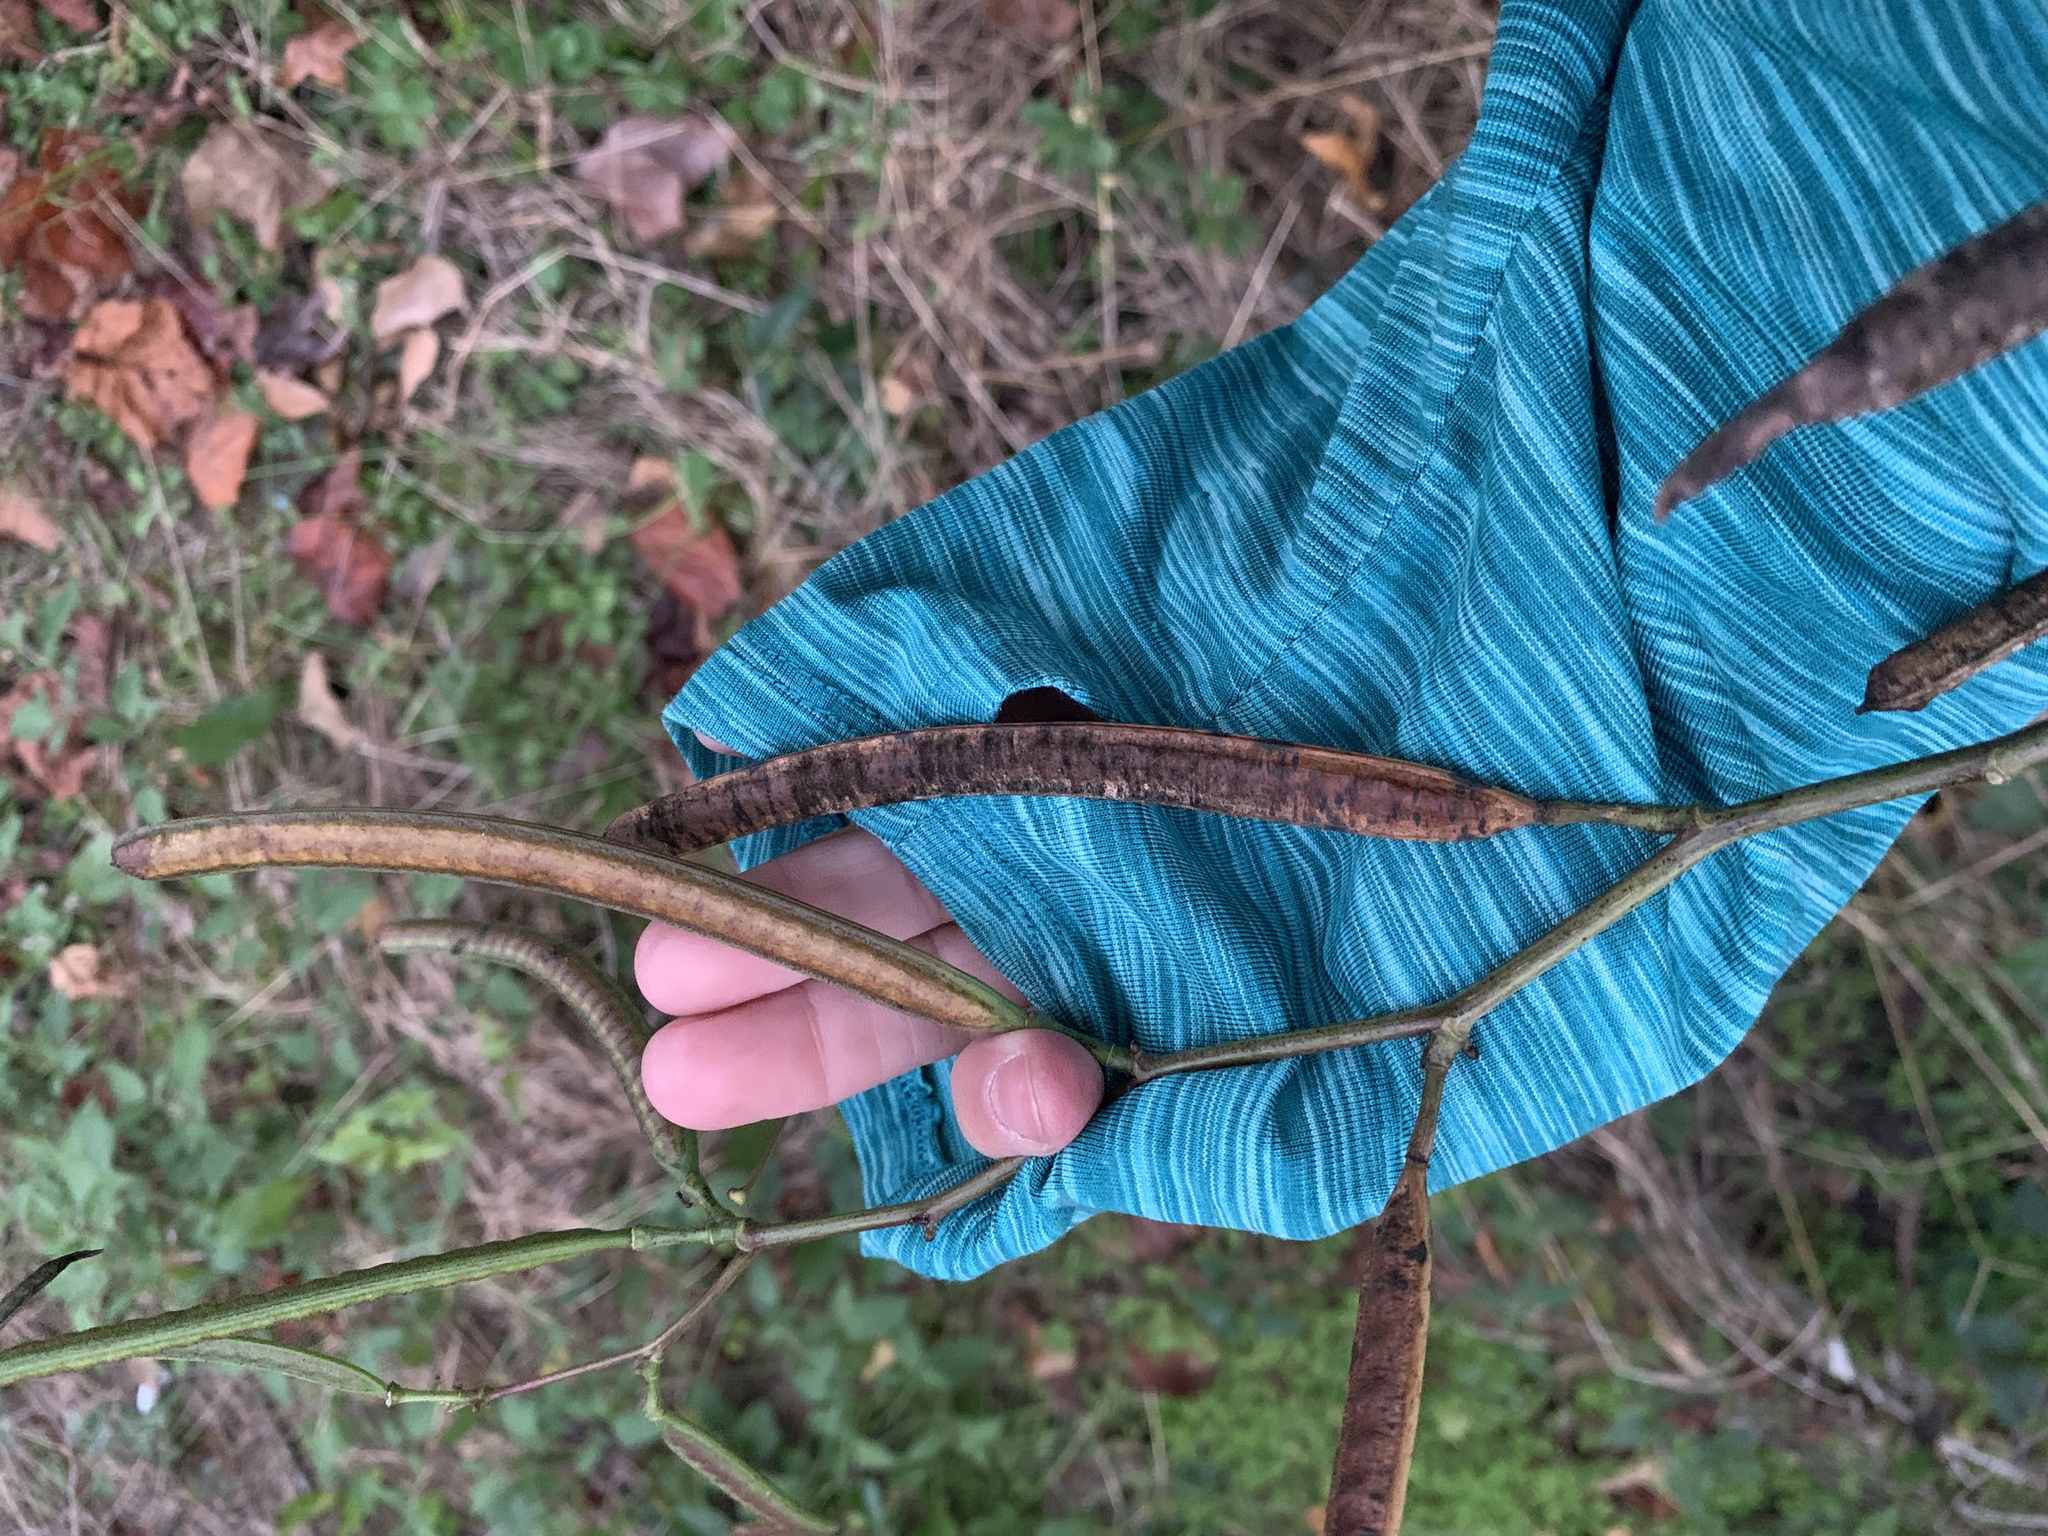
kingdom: Plantae
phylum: Tracheophyta
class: Magnoliopsida
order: Fabales
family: Fabaceae
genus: Senna
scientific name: Senna occidentalis
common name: Septicweed
